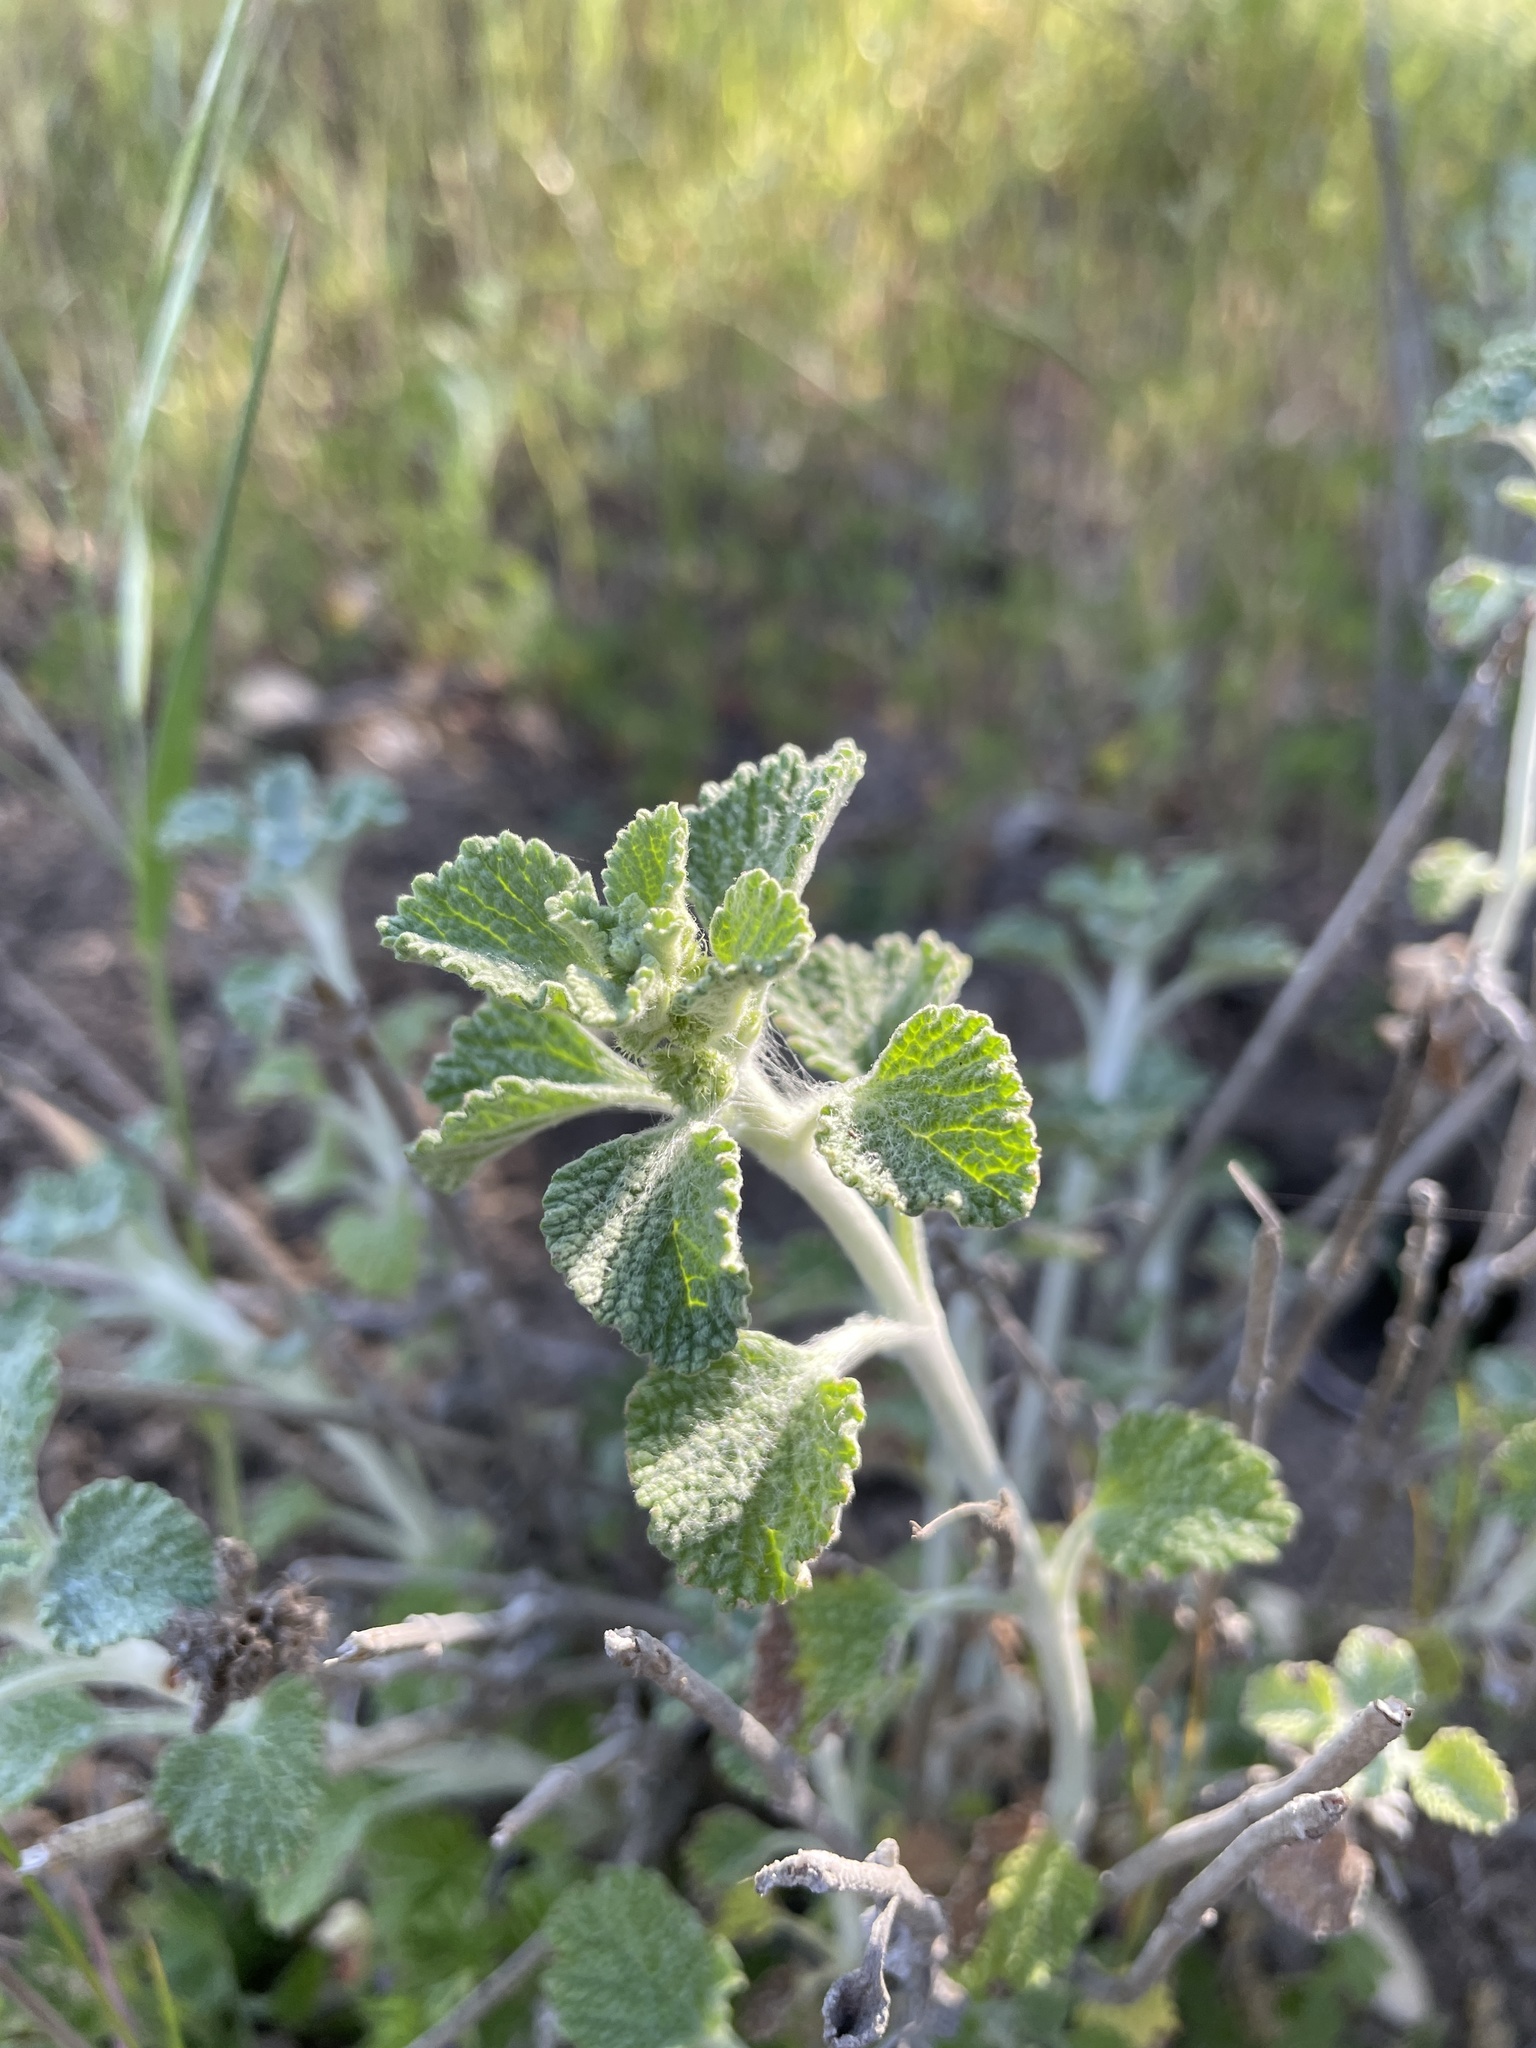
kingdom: Plantae
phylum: Tracheophyta
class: Magnoliopsida
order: Lamiales
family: Lamiaceae
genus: Marrubium
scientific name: Marrubium vulgare
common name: Horehound
